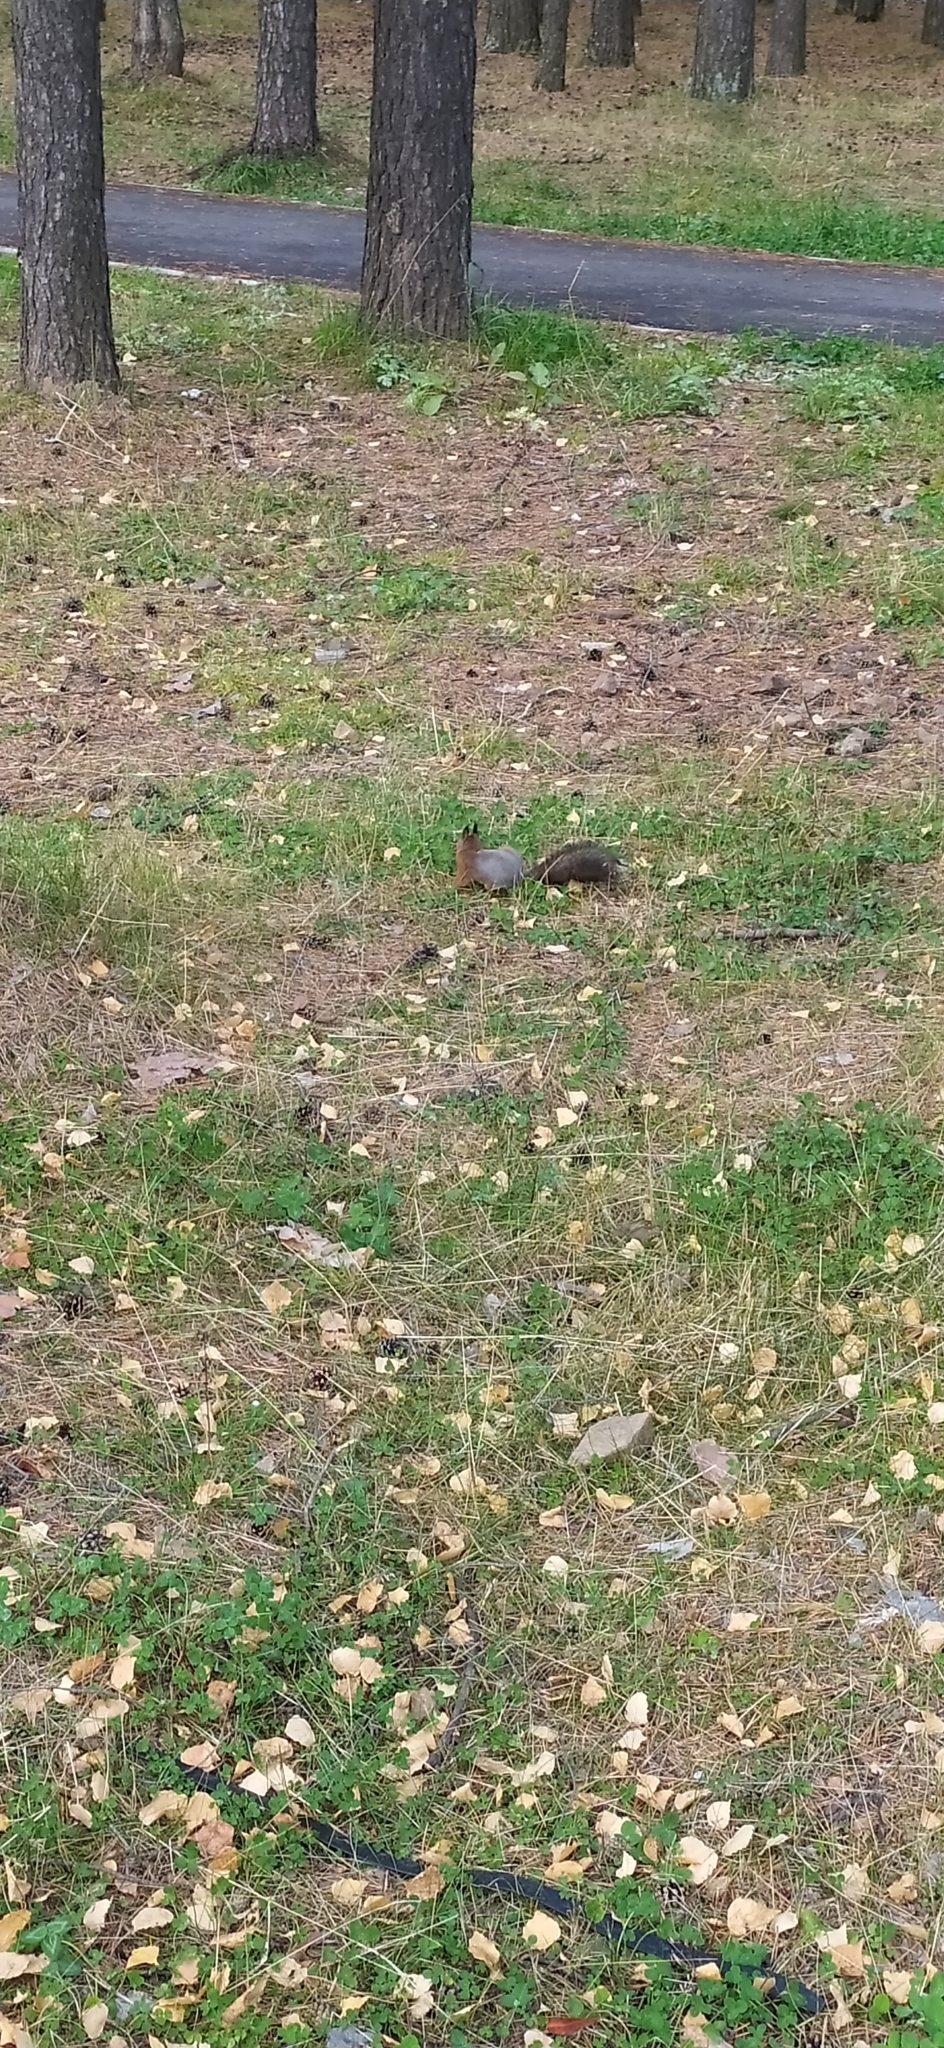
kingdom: Animalia
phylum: Chordata
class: Mammalia
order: Rodentia
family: Sciuridae
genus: Sciurus
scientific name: Sciurus vulgaris
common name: Eurasian red squirrel
